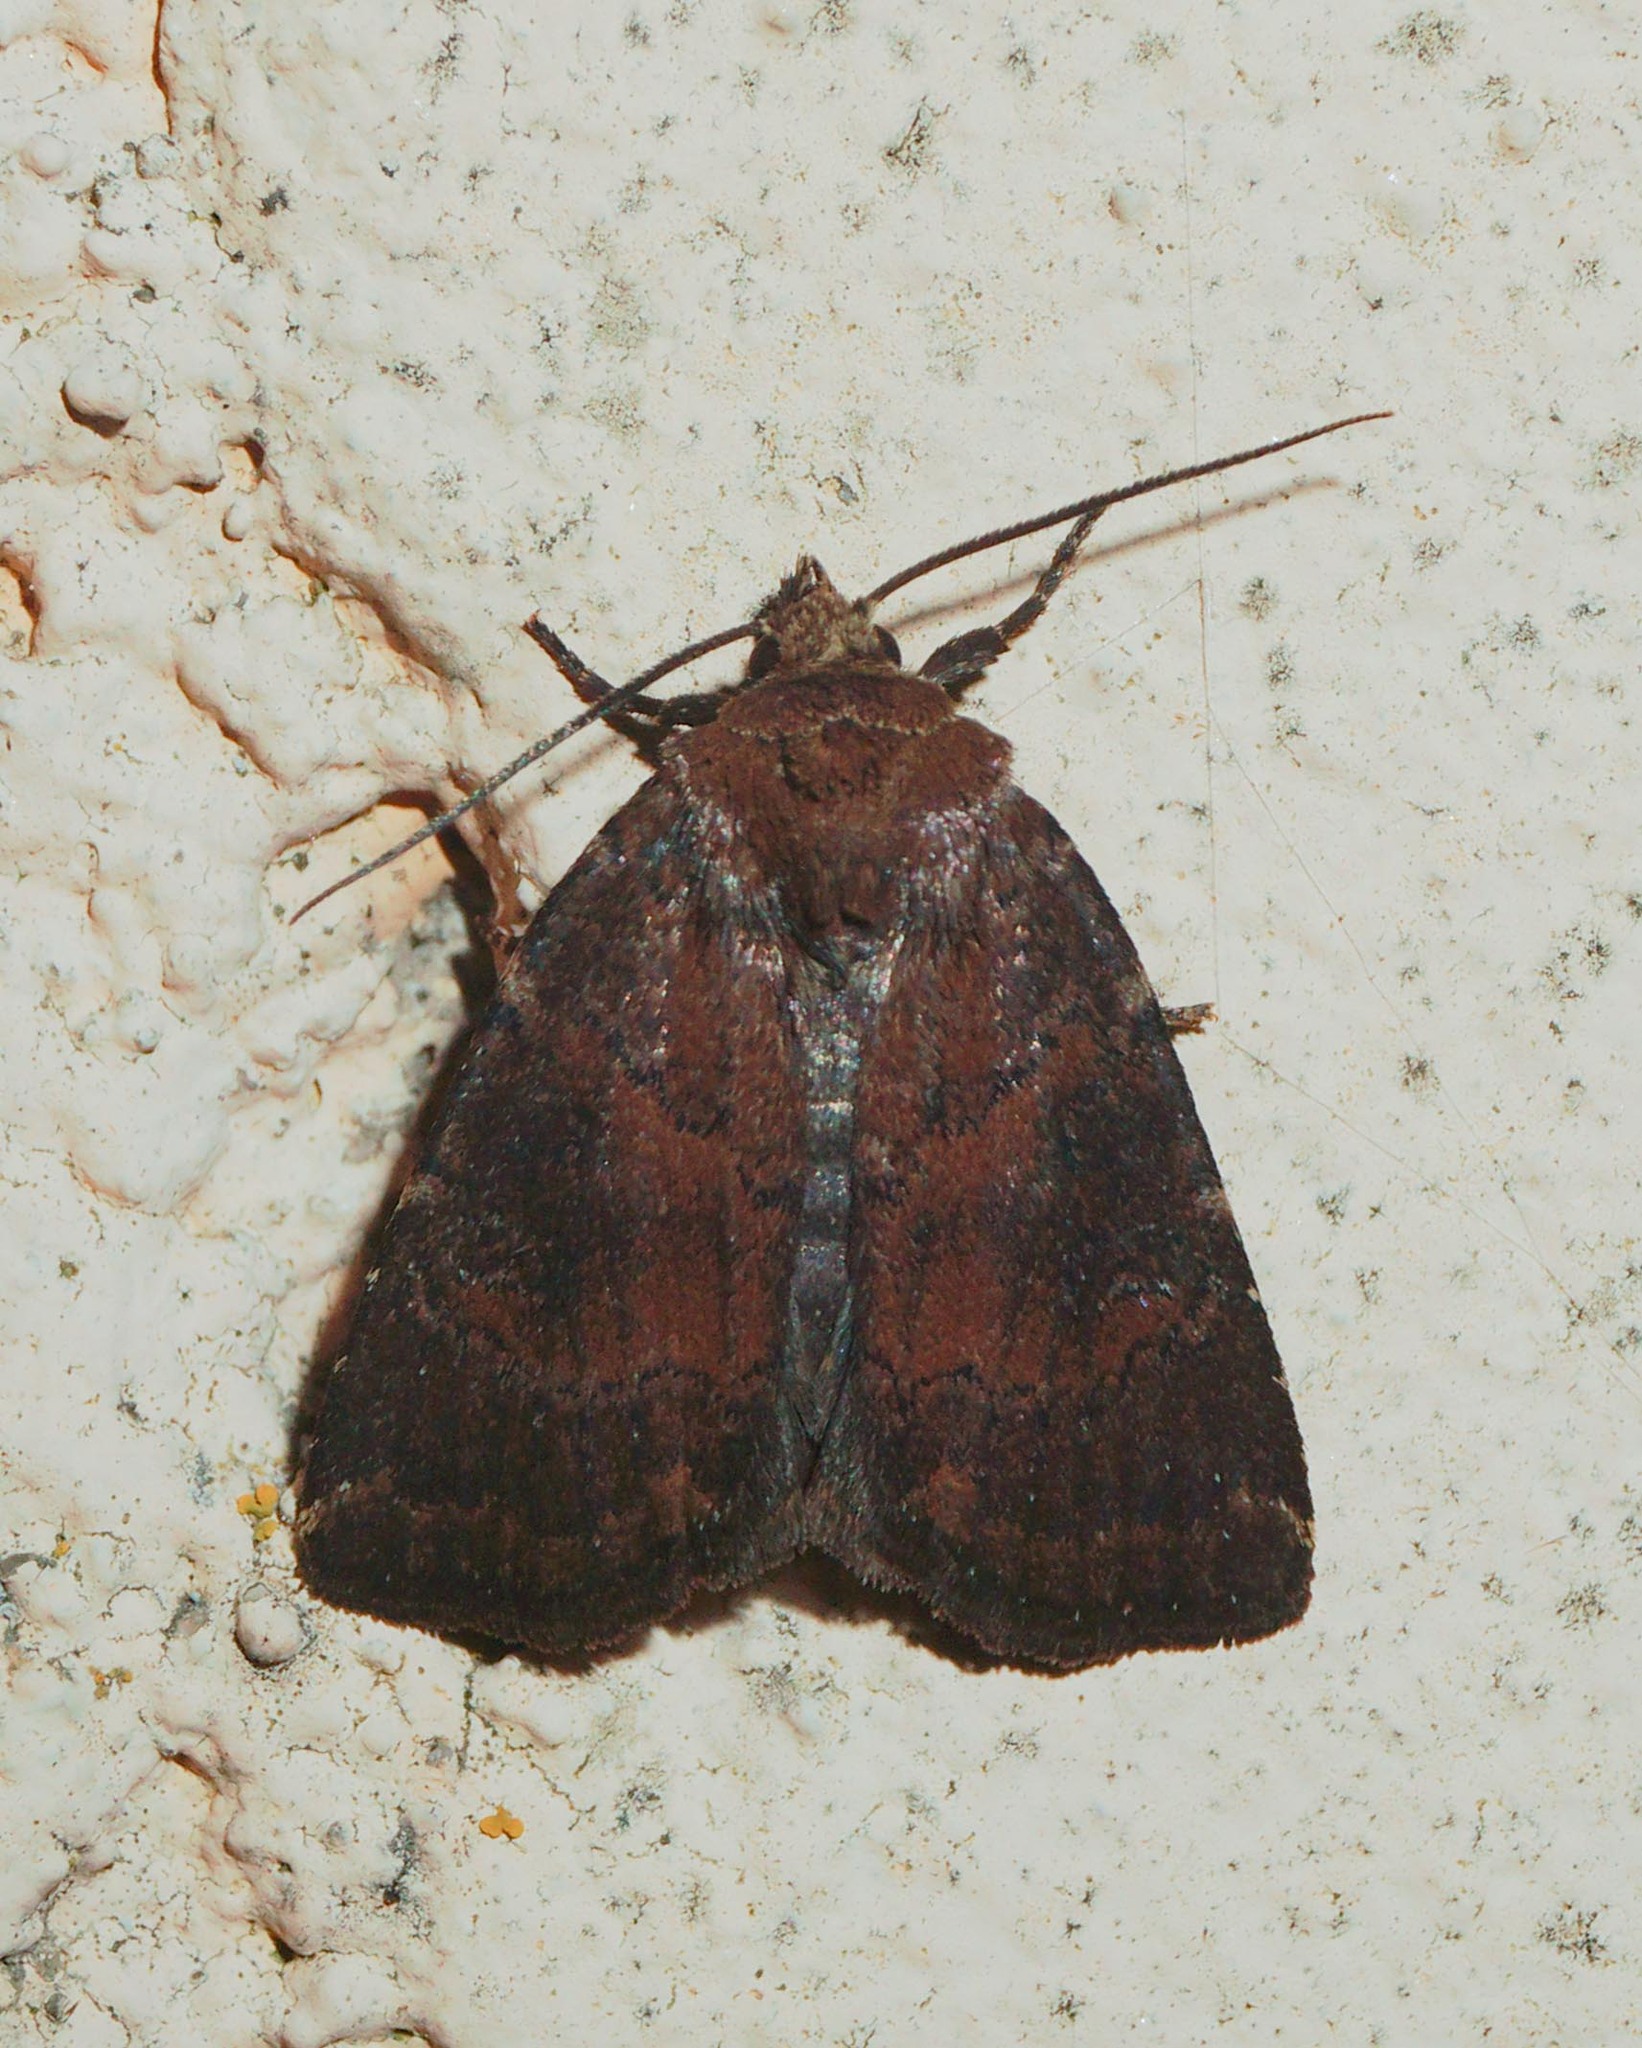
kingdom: Animalia
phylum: Arthropoda
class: Insecta
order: Lepidoptera
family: Noctuidae
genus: Charanyca
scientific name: Charanyca ferruginea
